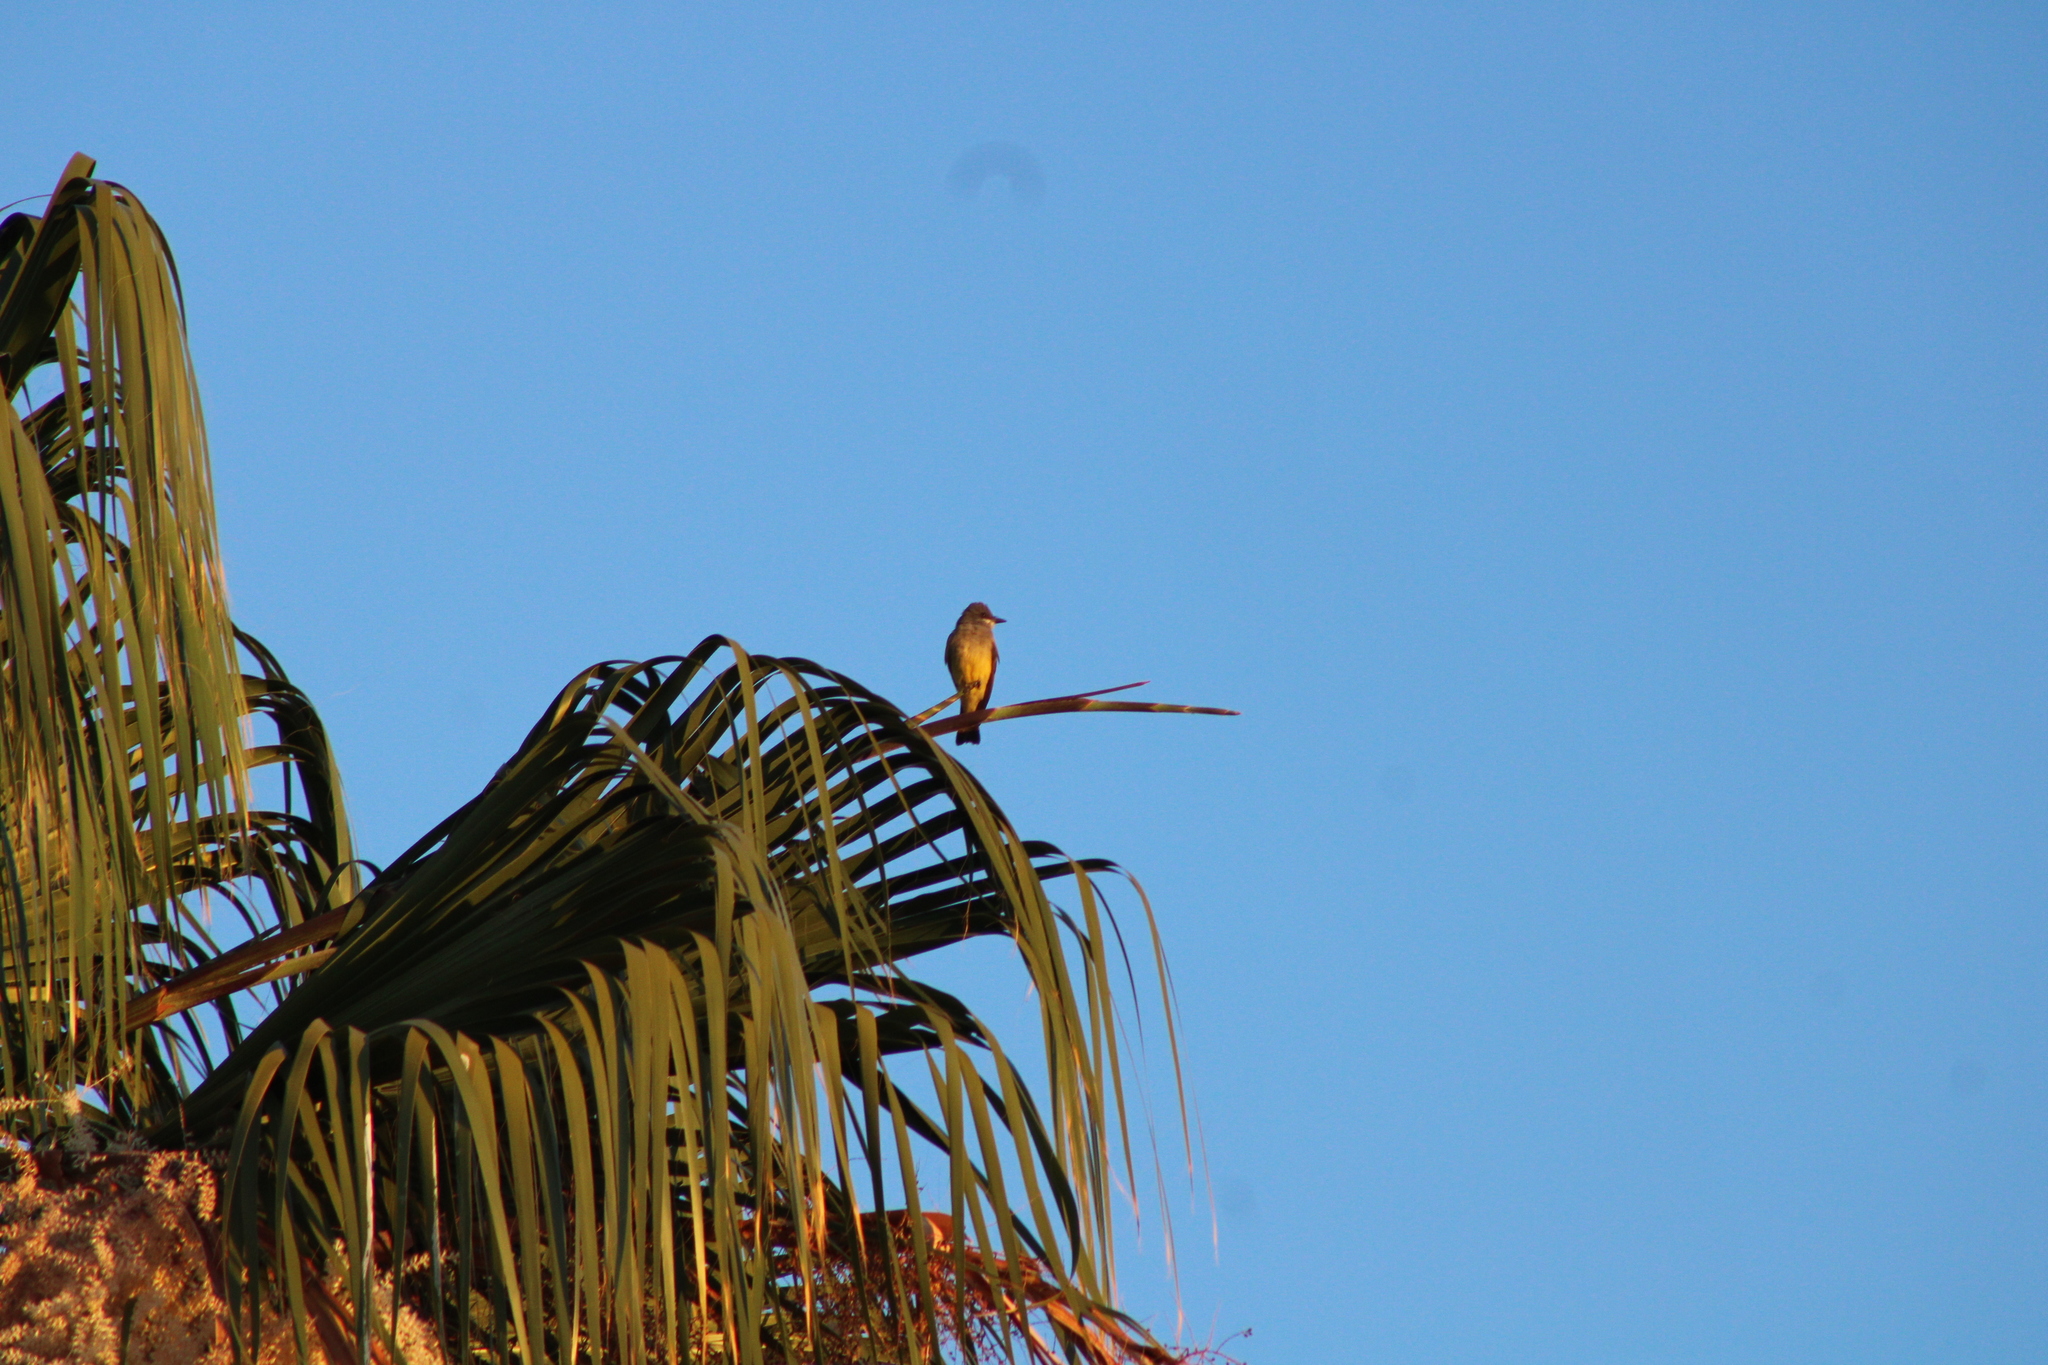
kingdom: Animalia
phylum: Chordata
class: Aves
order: Passeriformes
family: Tyrannidae
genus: Tyrannus
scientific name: Tyrannus vociferans
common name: Cassin's kingbird
